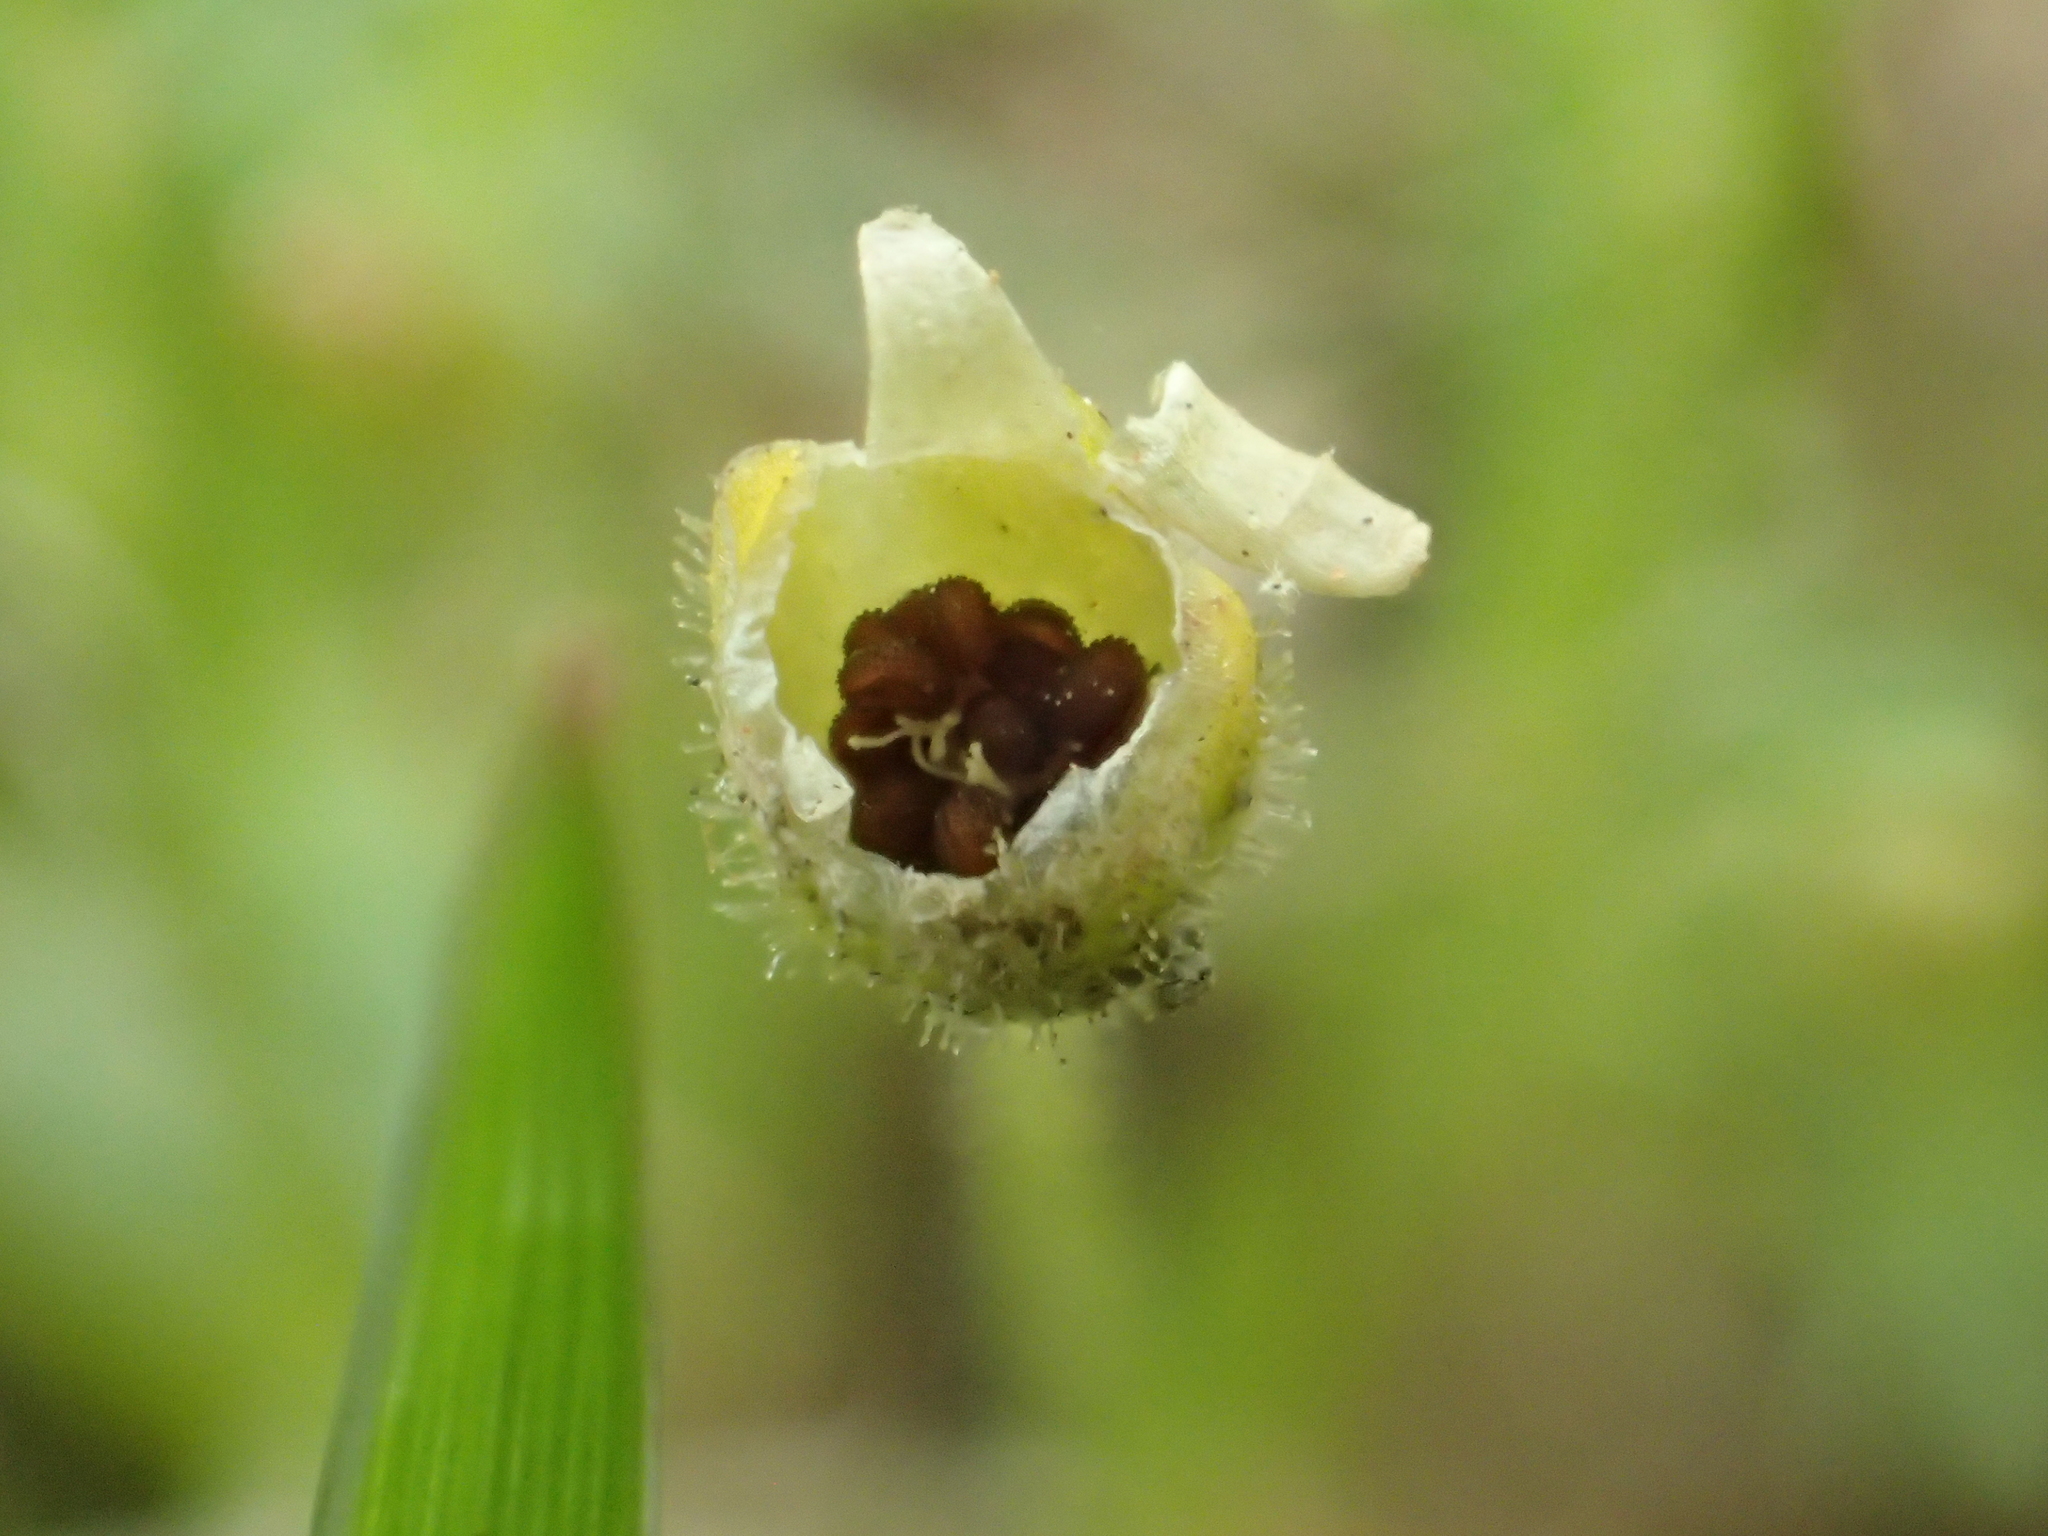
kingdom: Plantae
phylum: Tracheophyta
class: Magnoliopsida
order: Caryophyllales
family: Caryophyllaceae
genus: Sagina
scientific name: Sagina japonica
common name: Japanese pearlwort
